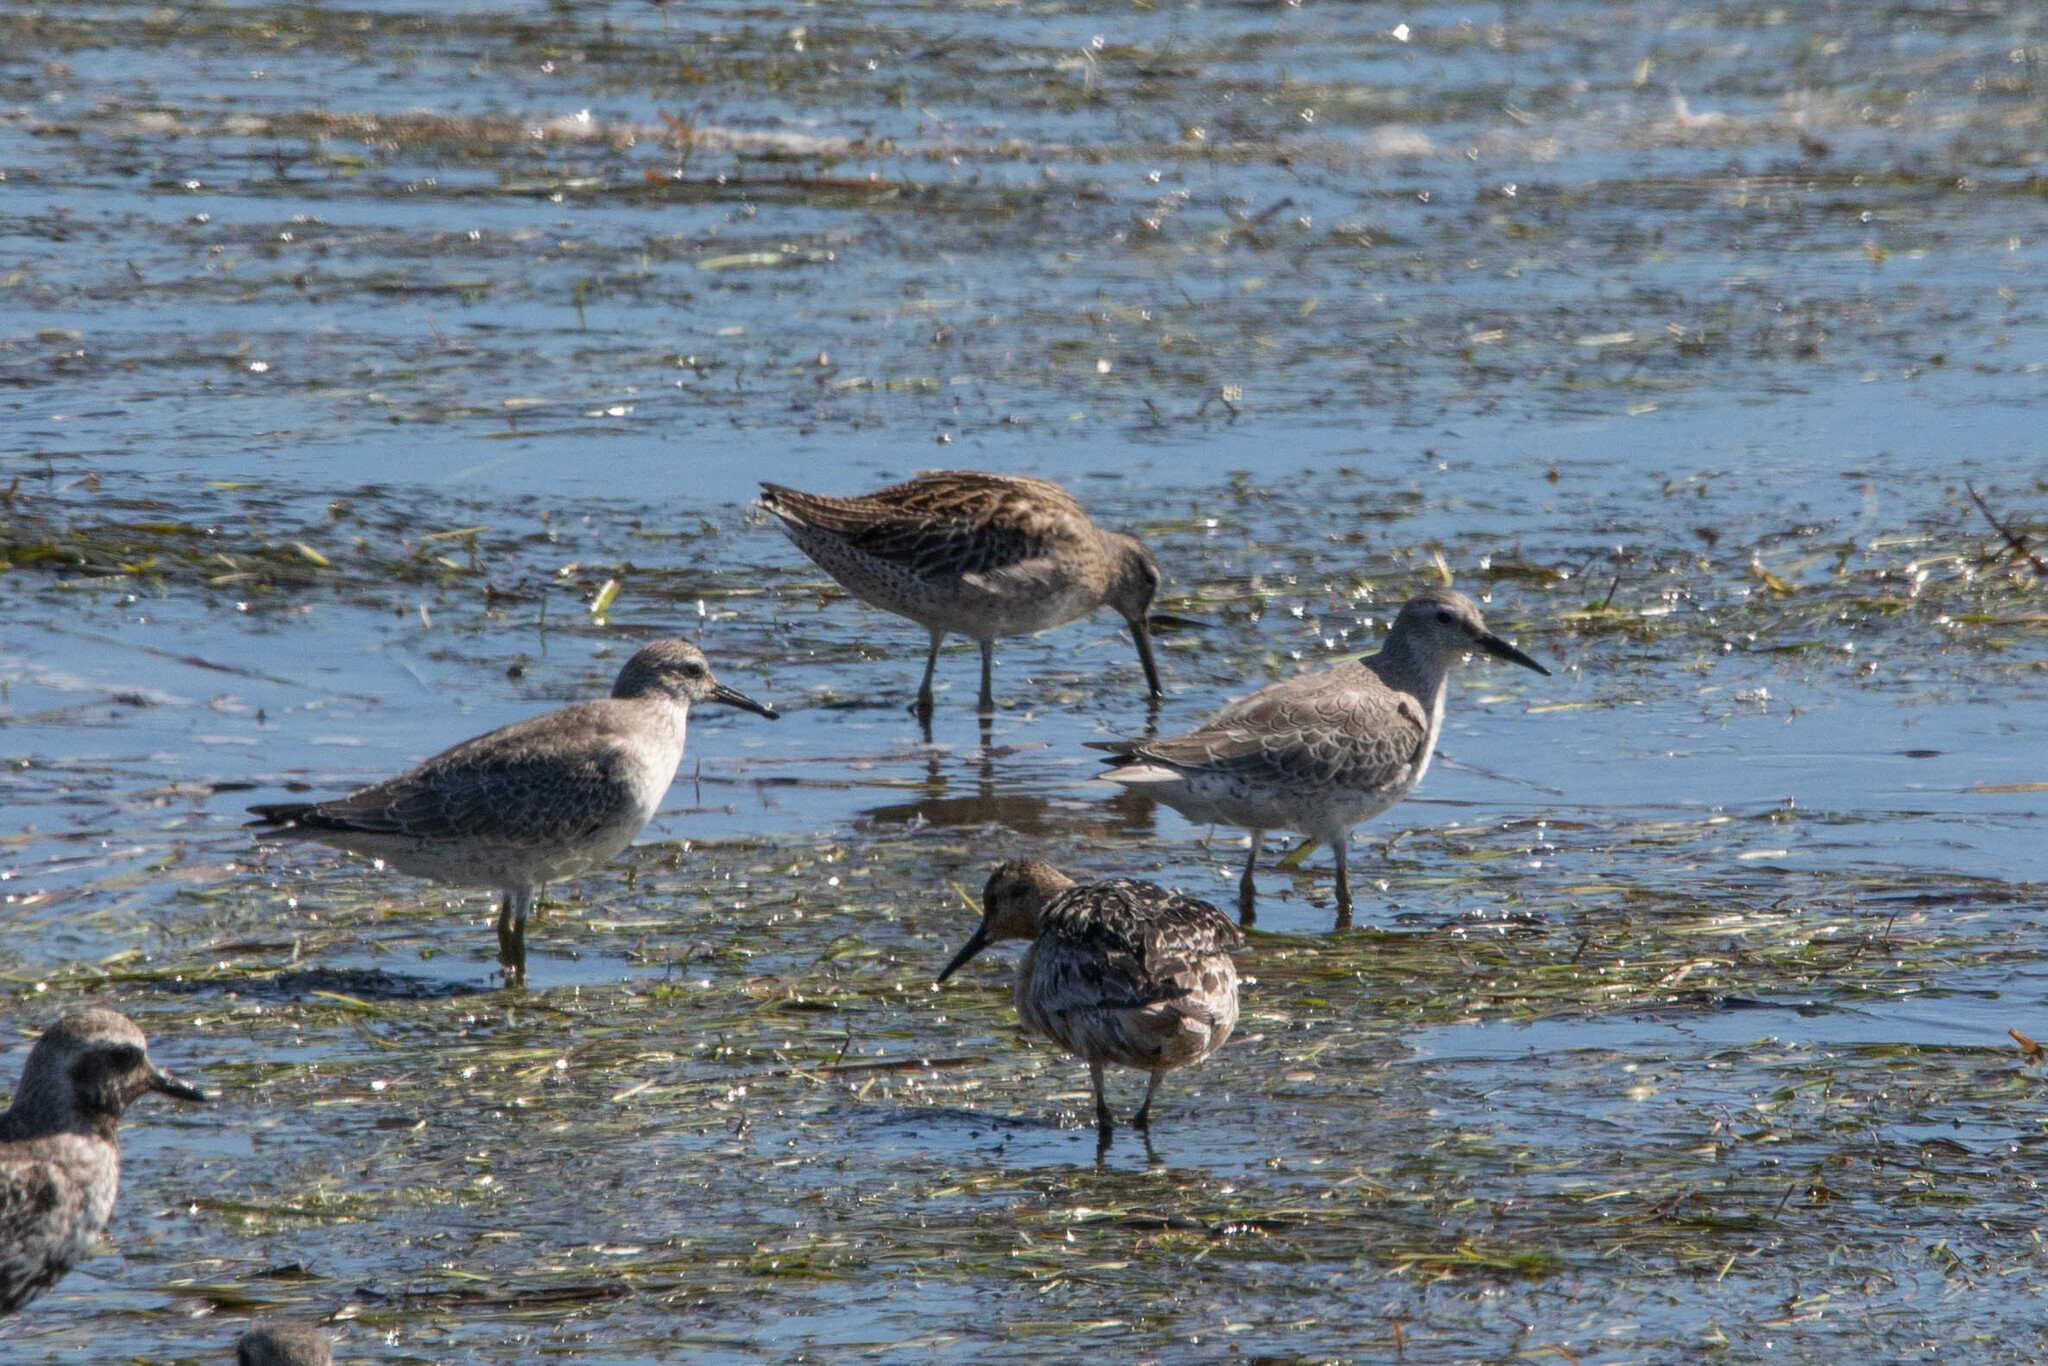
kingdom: Animalia
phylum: Chordata
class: Aves
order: Charadriiformes
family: Scolopacidae
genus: Calidris
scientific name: Calidris canutus
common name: Red knot
